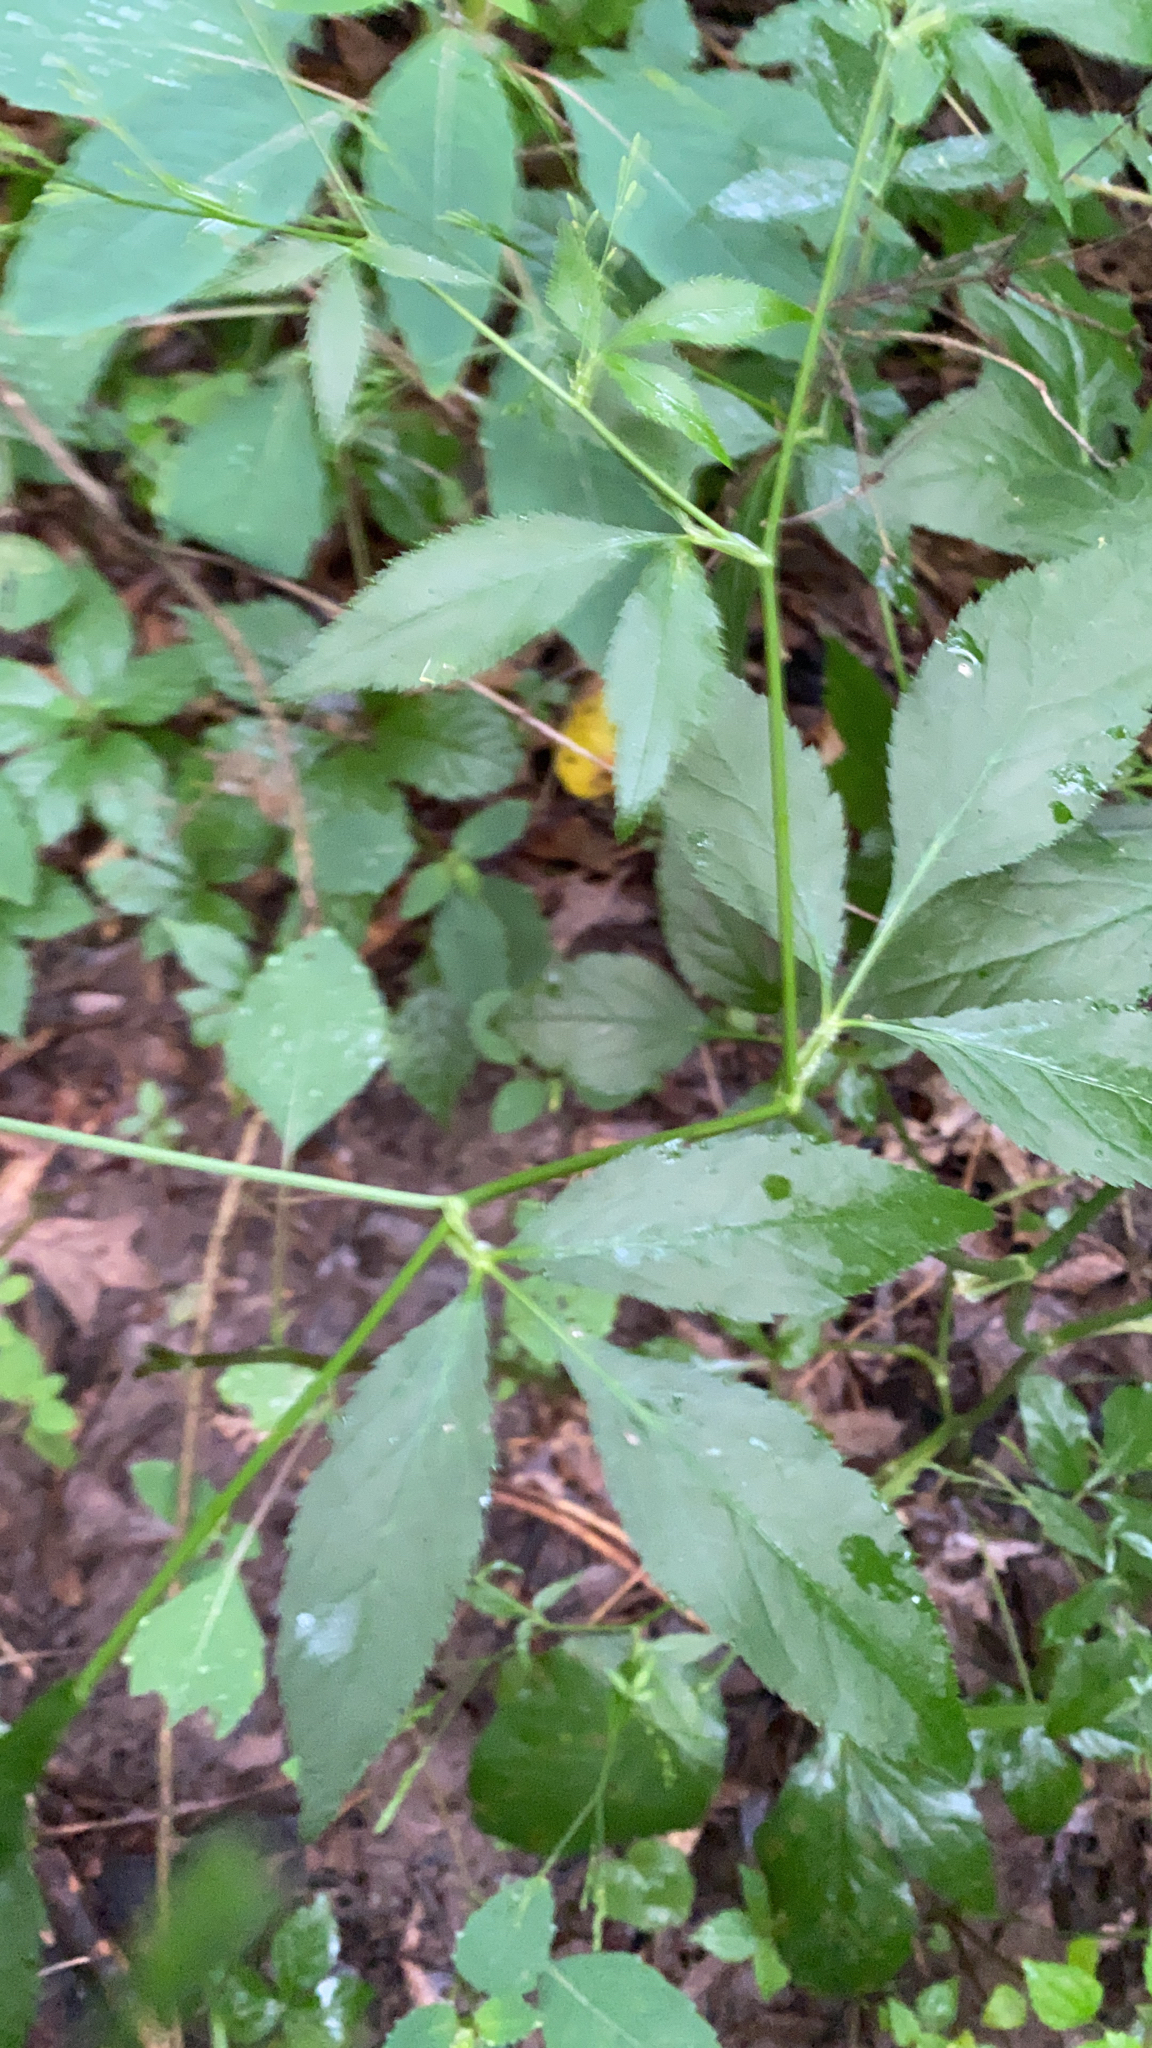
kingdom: Plantae
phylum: Tracheophyta
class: Magnoliopsida
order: Apiales
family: Apiaceae
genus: Cryptotaenia
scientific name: Cryptotaenia canadensis
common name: Honewort
